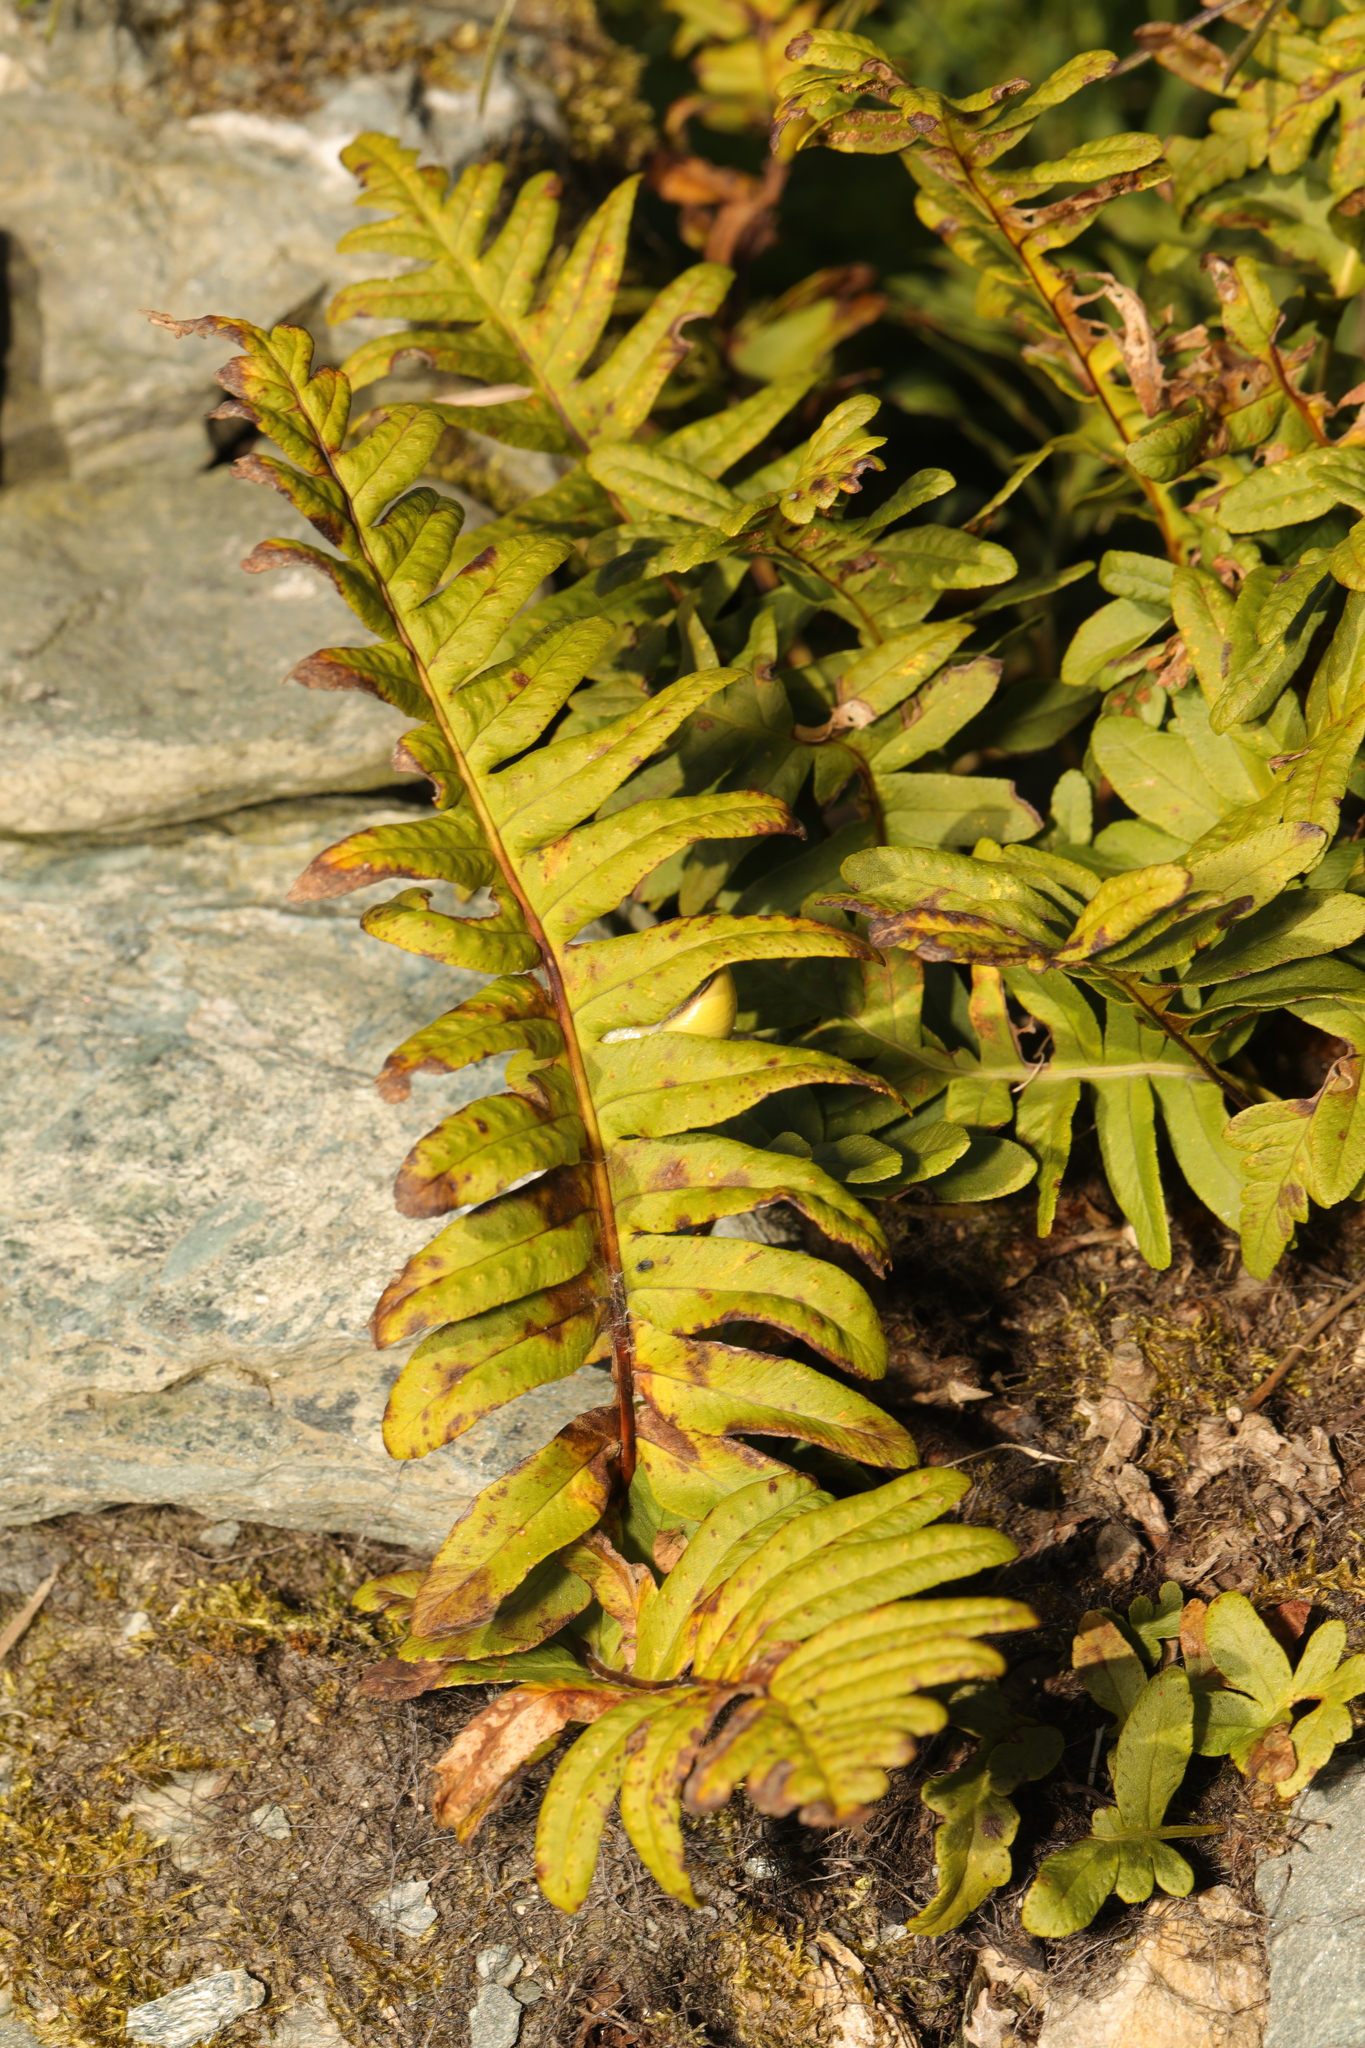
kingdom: Plantae
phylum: Tracheophyta
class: Polypodiopsida
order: Polypodiales
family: Polypodiaceae
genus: Polypodium
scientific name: Polypodium
